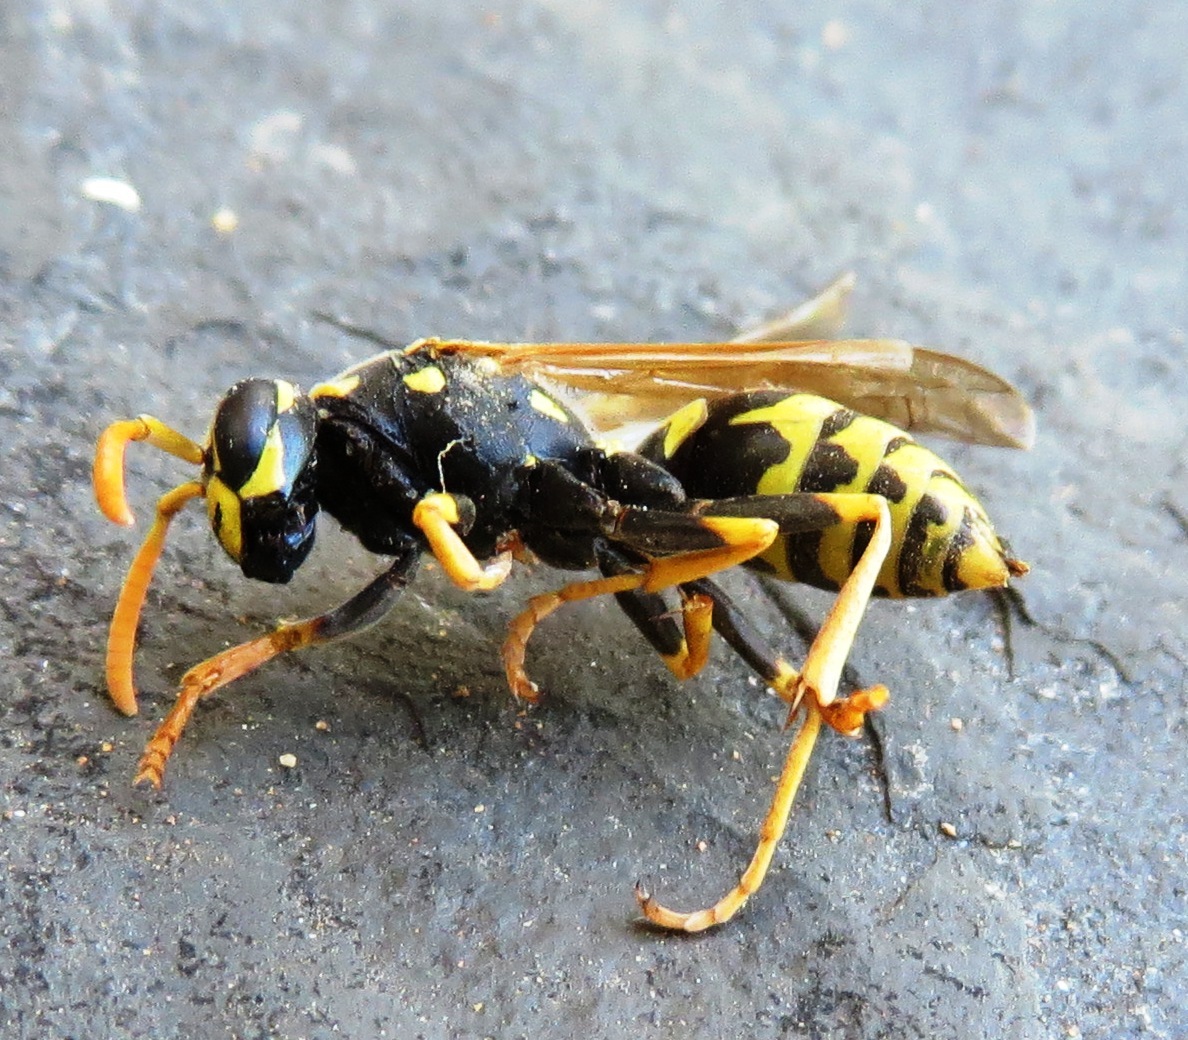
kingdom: Animalia
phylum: Arthropoda
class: Insecta
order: Hymenoptera
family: Eumenidae
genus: Polistes
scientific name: Polistes dominula
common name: Paper wasp
